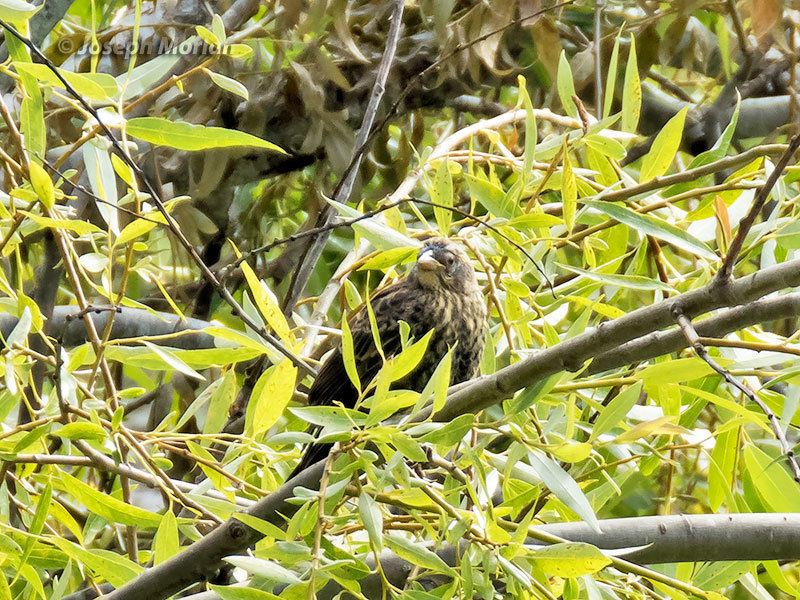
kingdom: Animalia
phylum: Chordata
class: Aves
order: Passeriformes
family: Icteridae
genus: Agelaius
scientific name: Agelaius phoeniceus
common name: Red-winged blackbird
